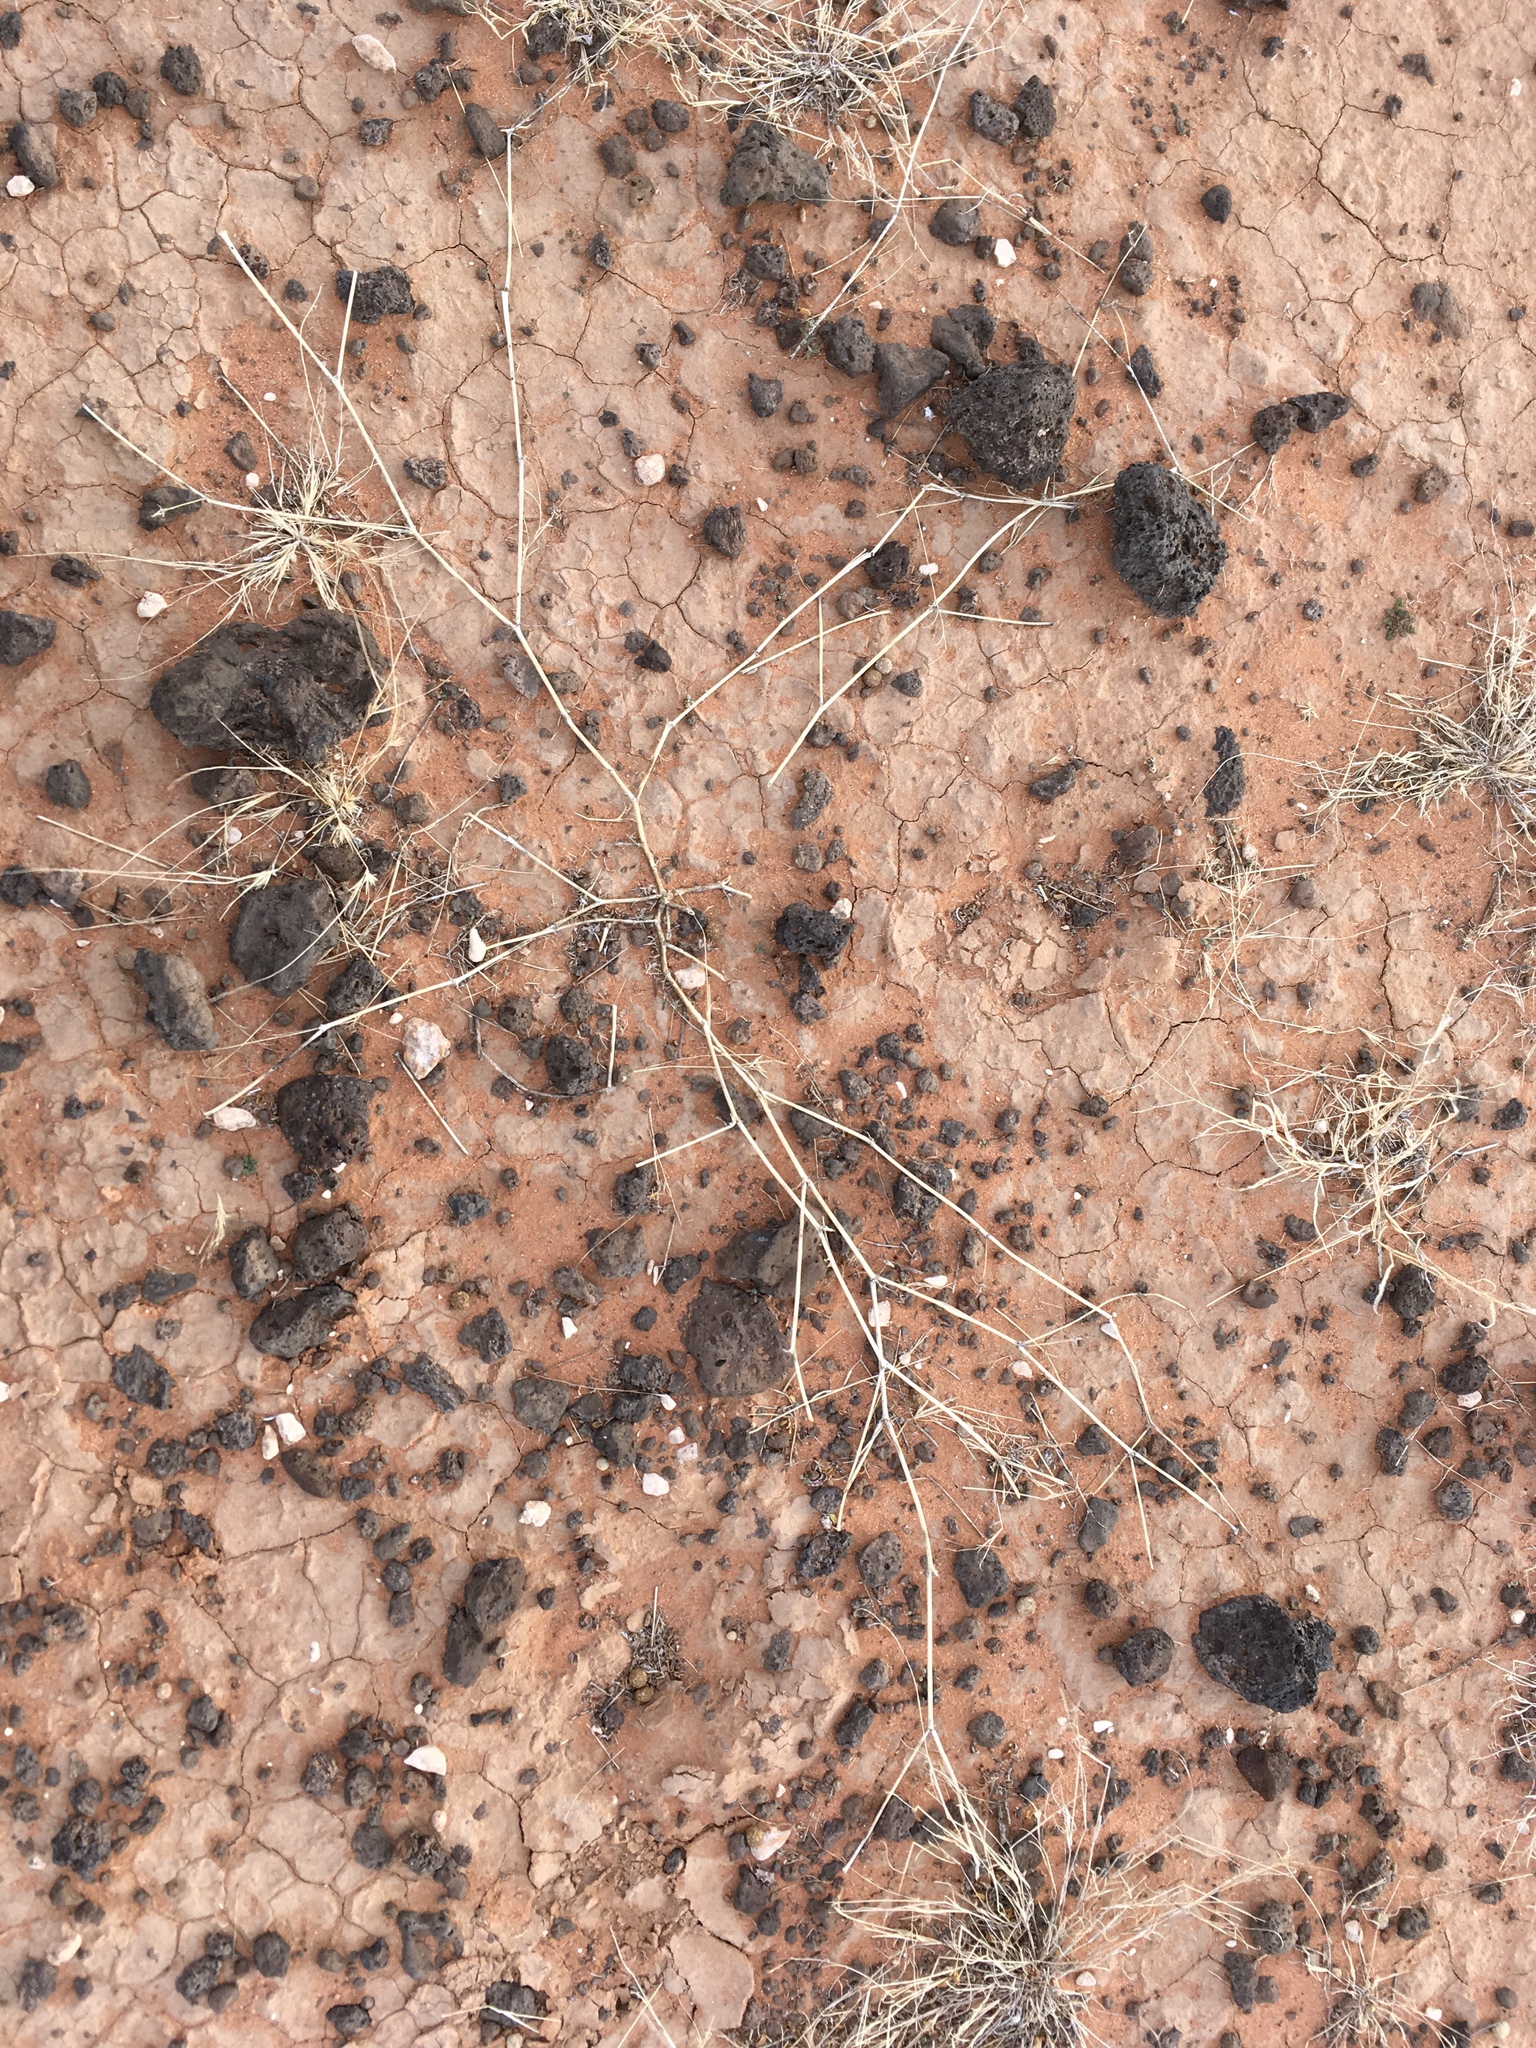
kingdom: Plantae
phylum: Tracheophyta
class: Magnoliopsida
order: Zygophyllales
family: Zygophyllaceae
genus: Kallstroemia
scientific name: Kallstroemia parviflora
